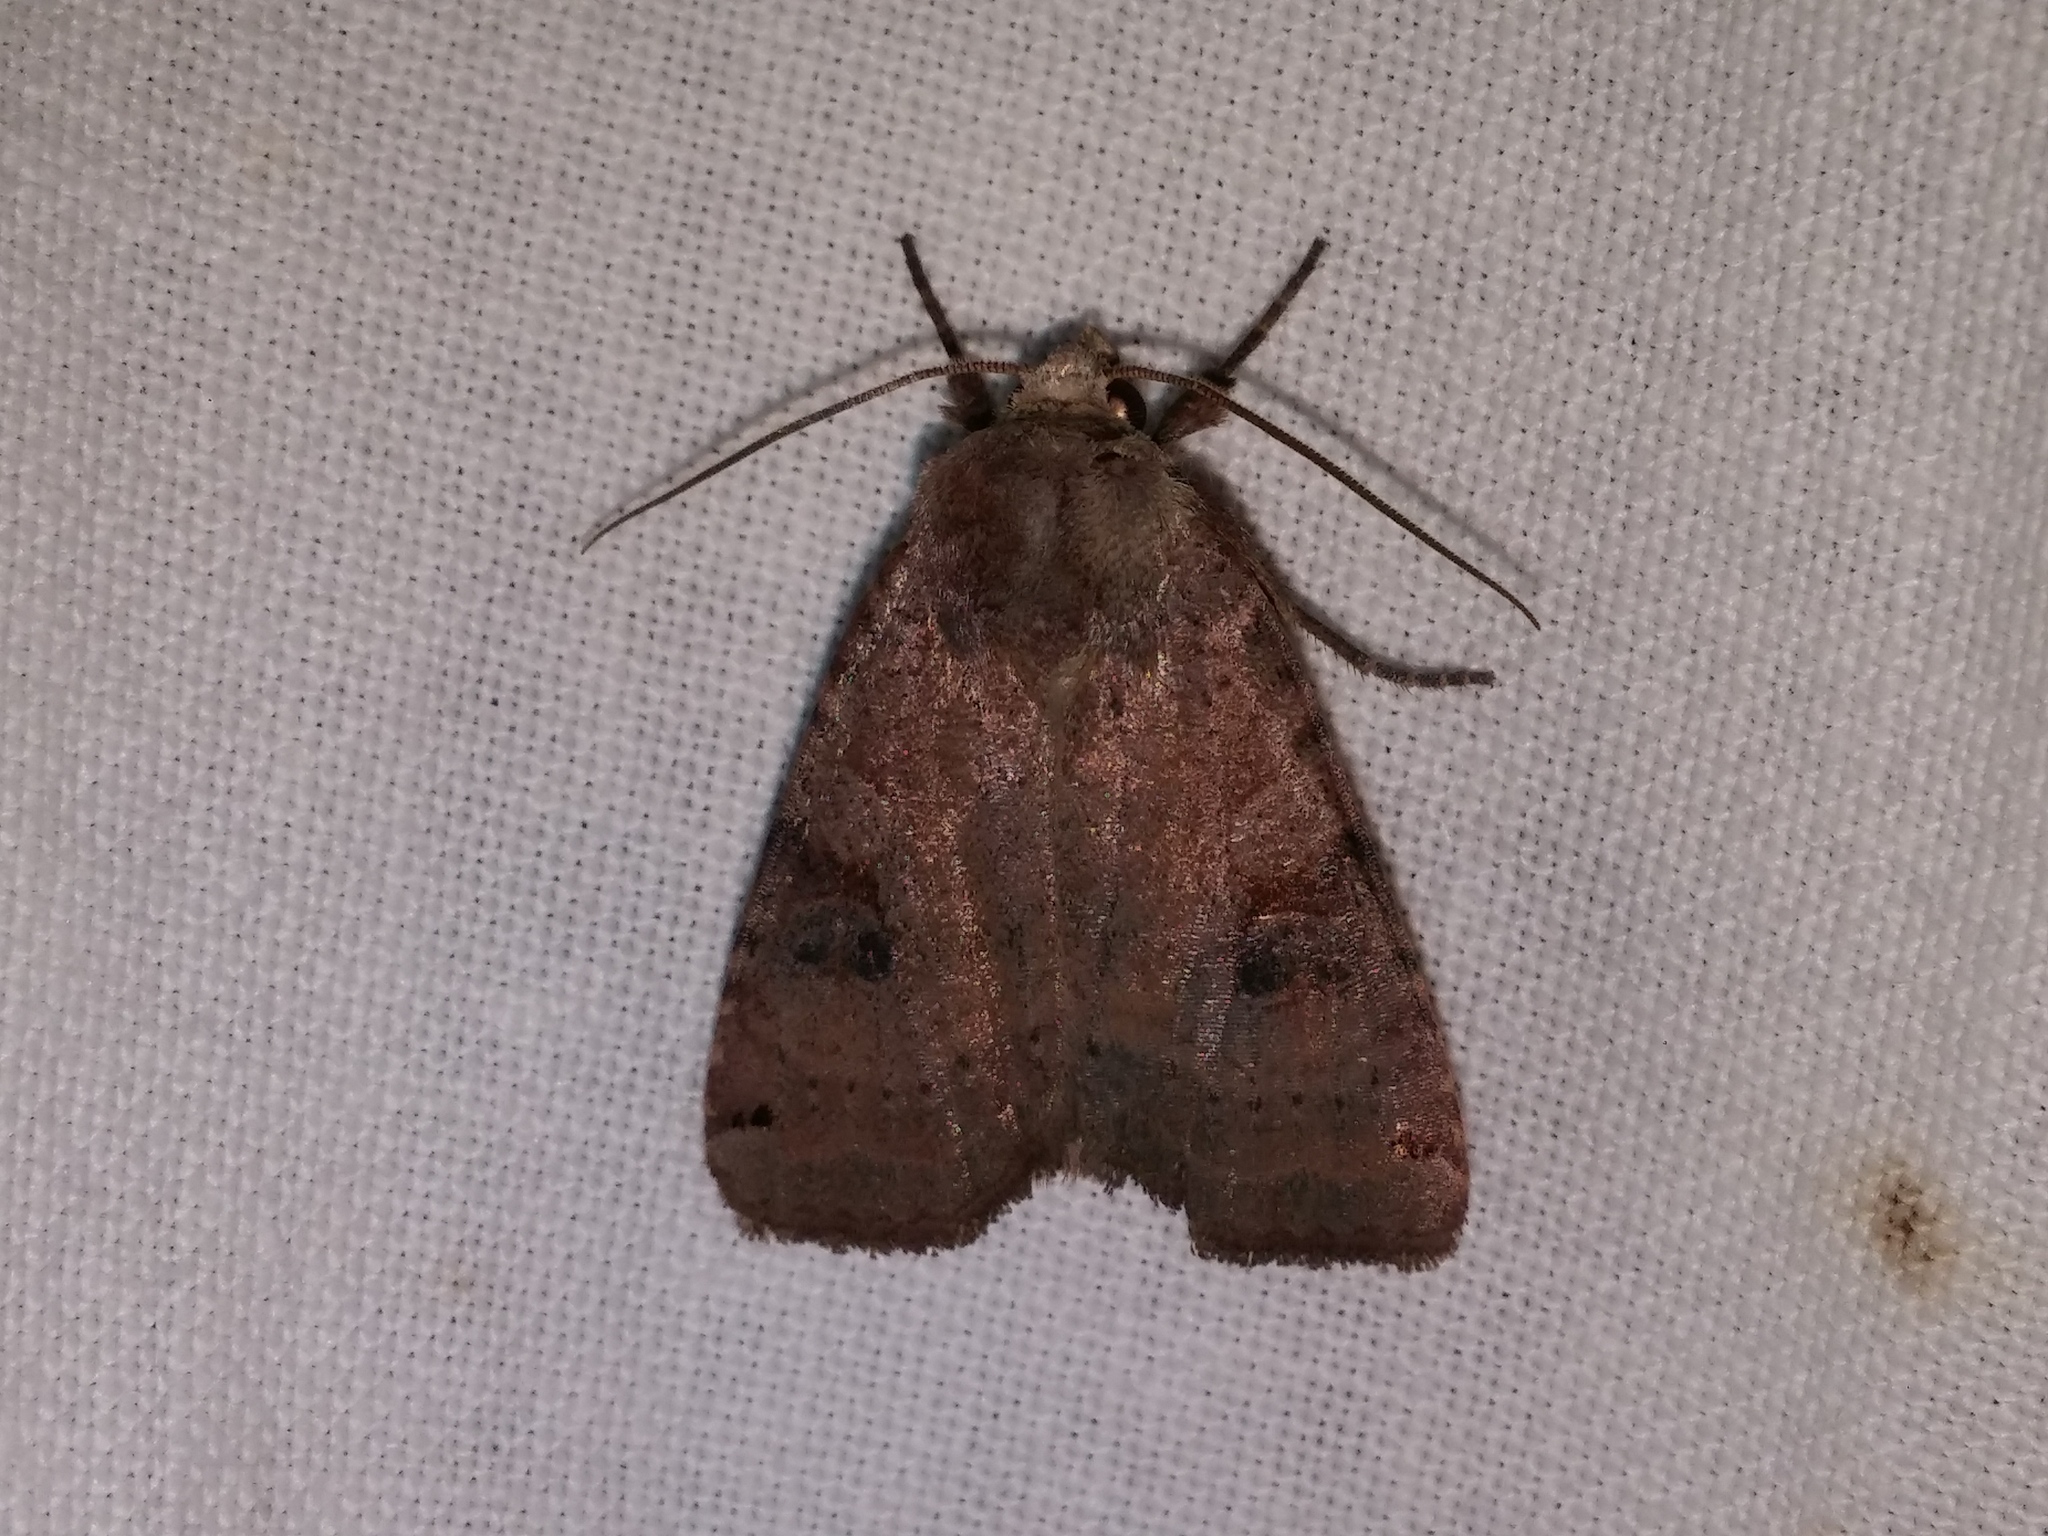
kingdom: Animalia
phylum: Arthropoda
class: Insecta
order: Lepidoptera
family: Noctuidae
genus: Xestia
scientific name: Xestia smithii
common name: Smith's dart
